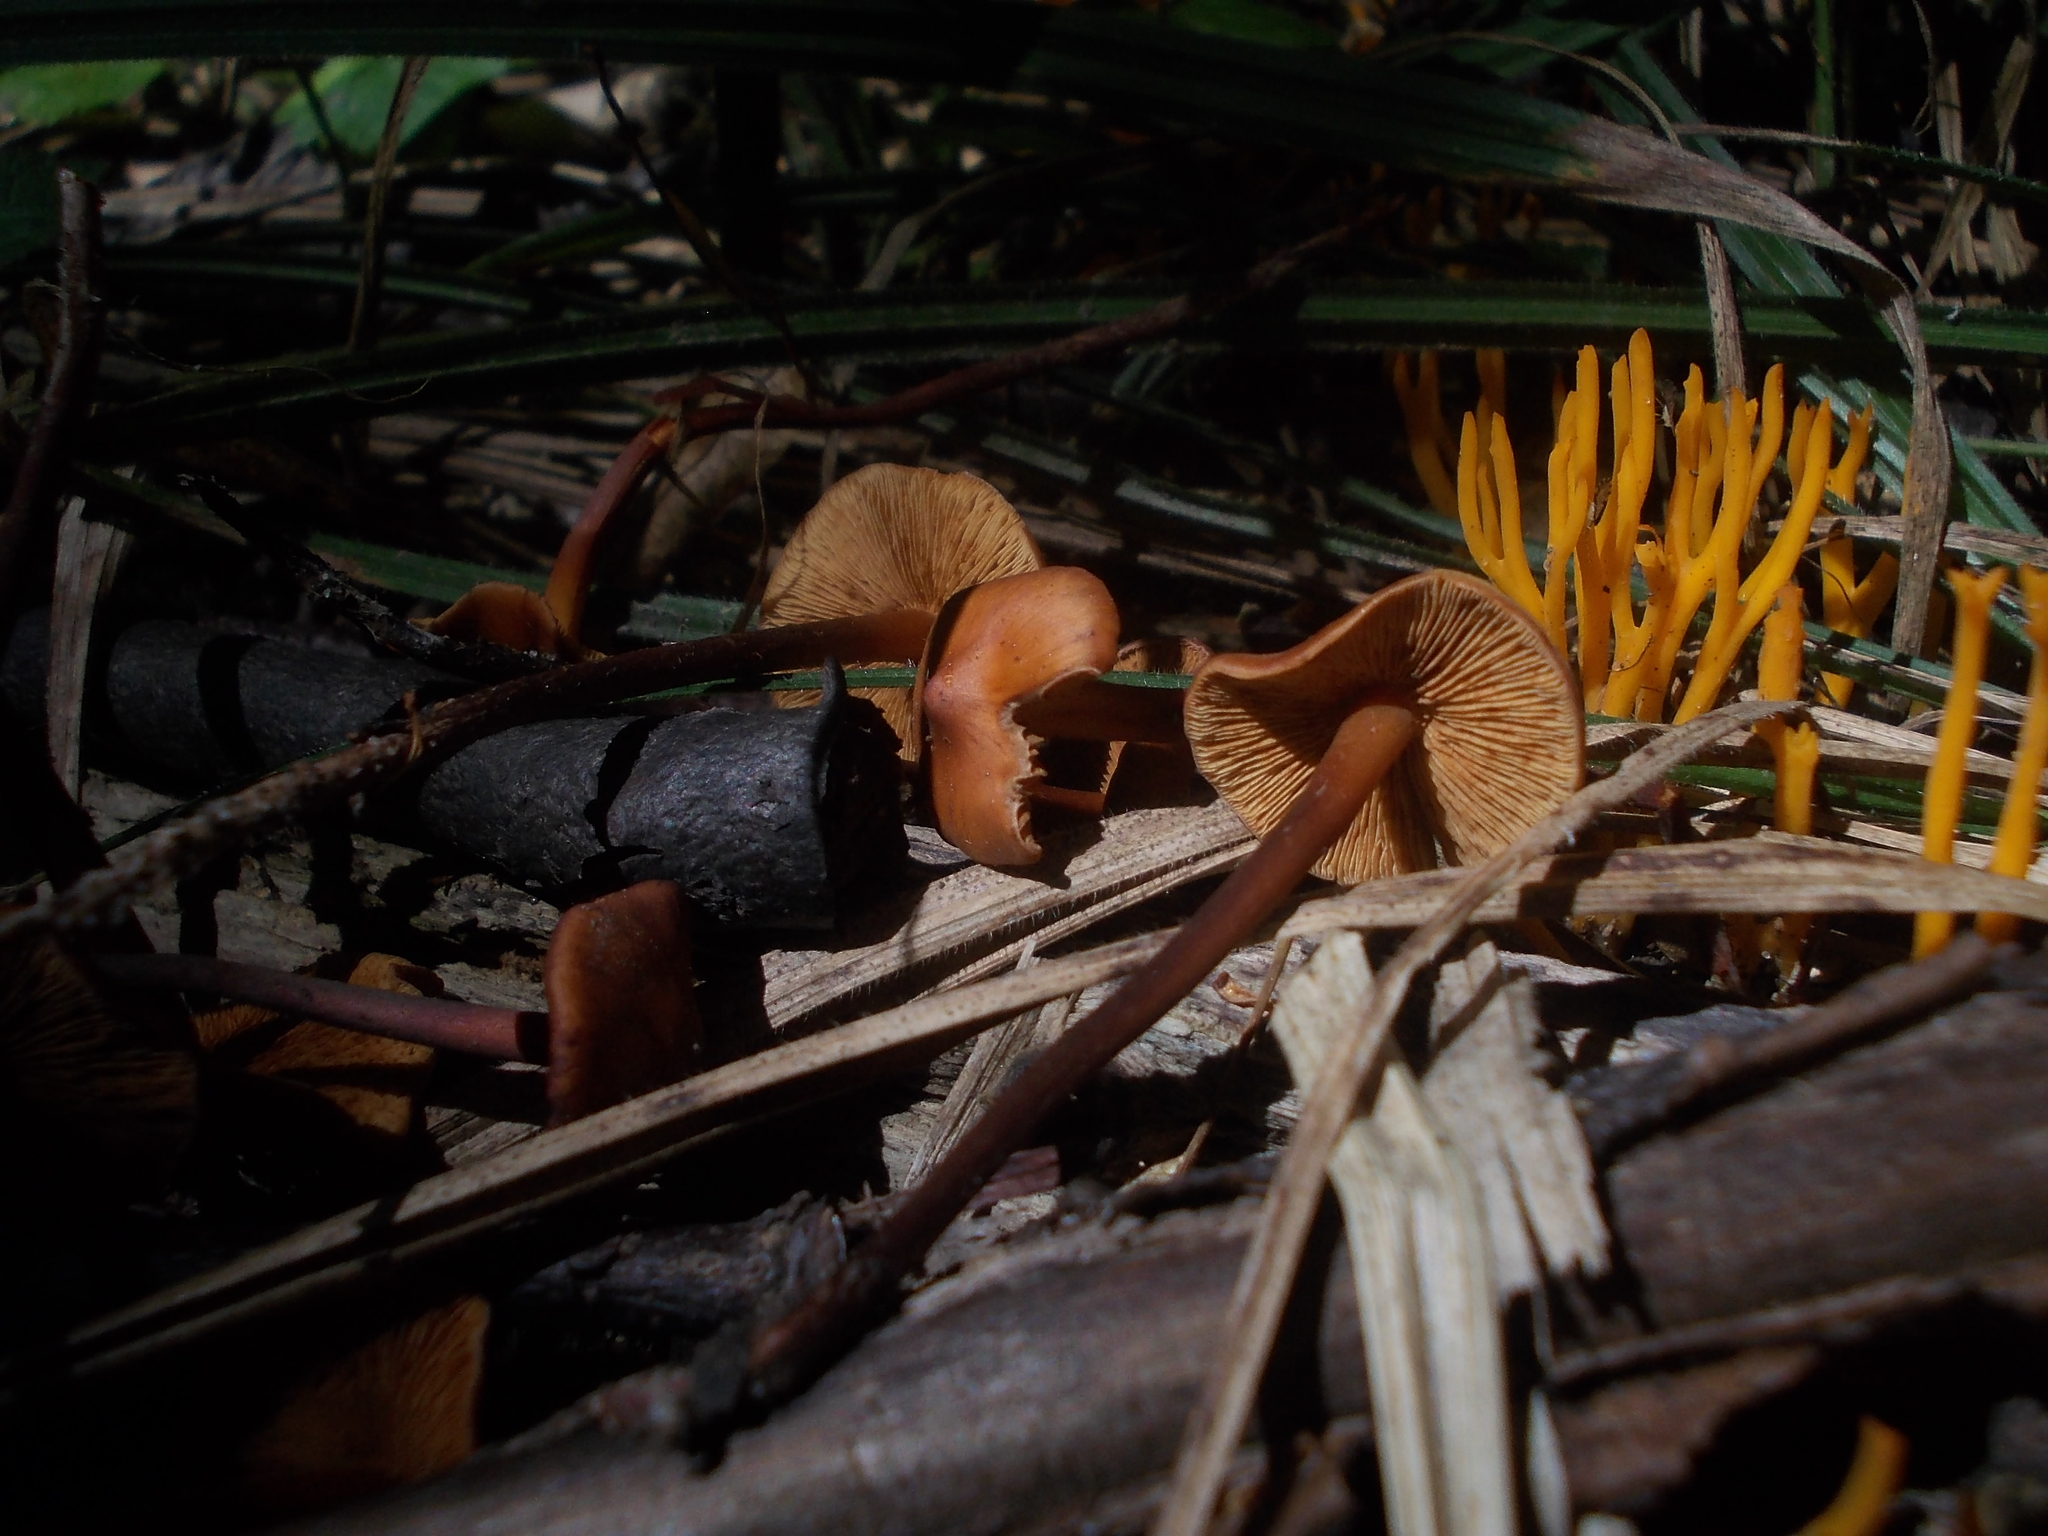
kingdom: Fungi
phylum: Basidiomycota
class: Agaricomycetes
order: Agaricales
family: Hymenogastraceae
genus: Phaeocollybia
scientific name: Phaeocollybia jennyae
